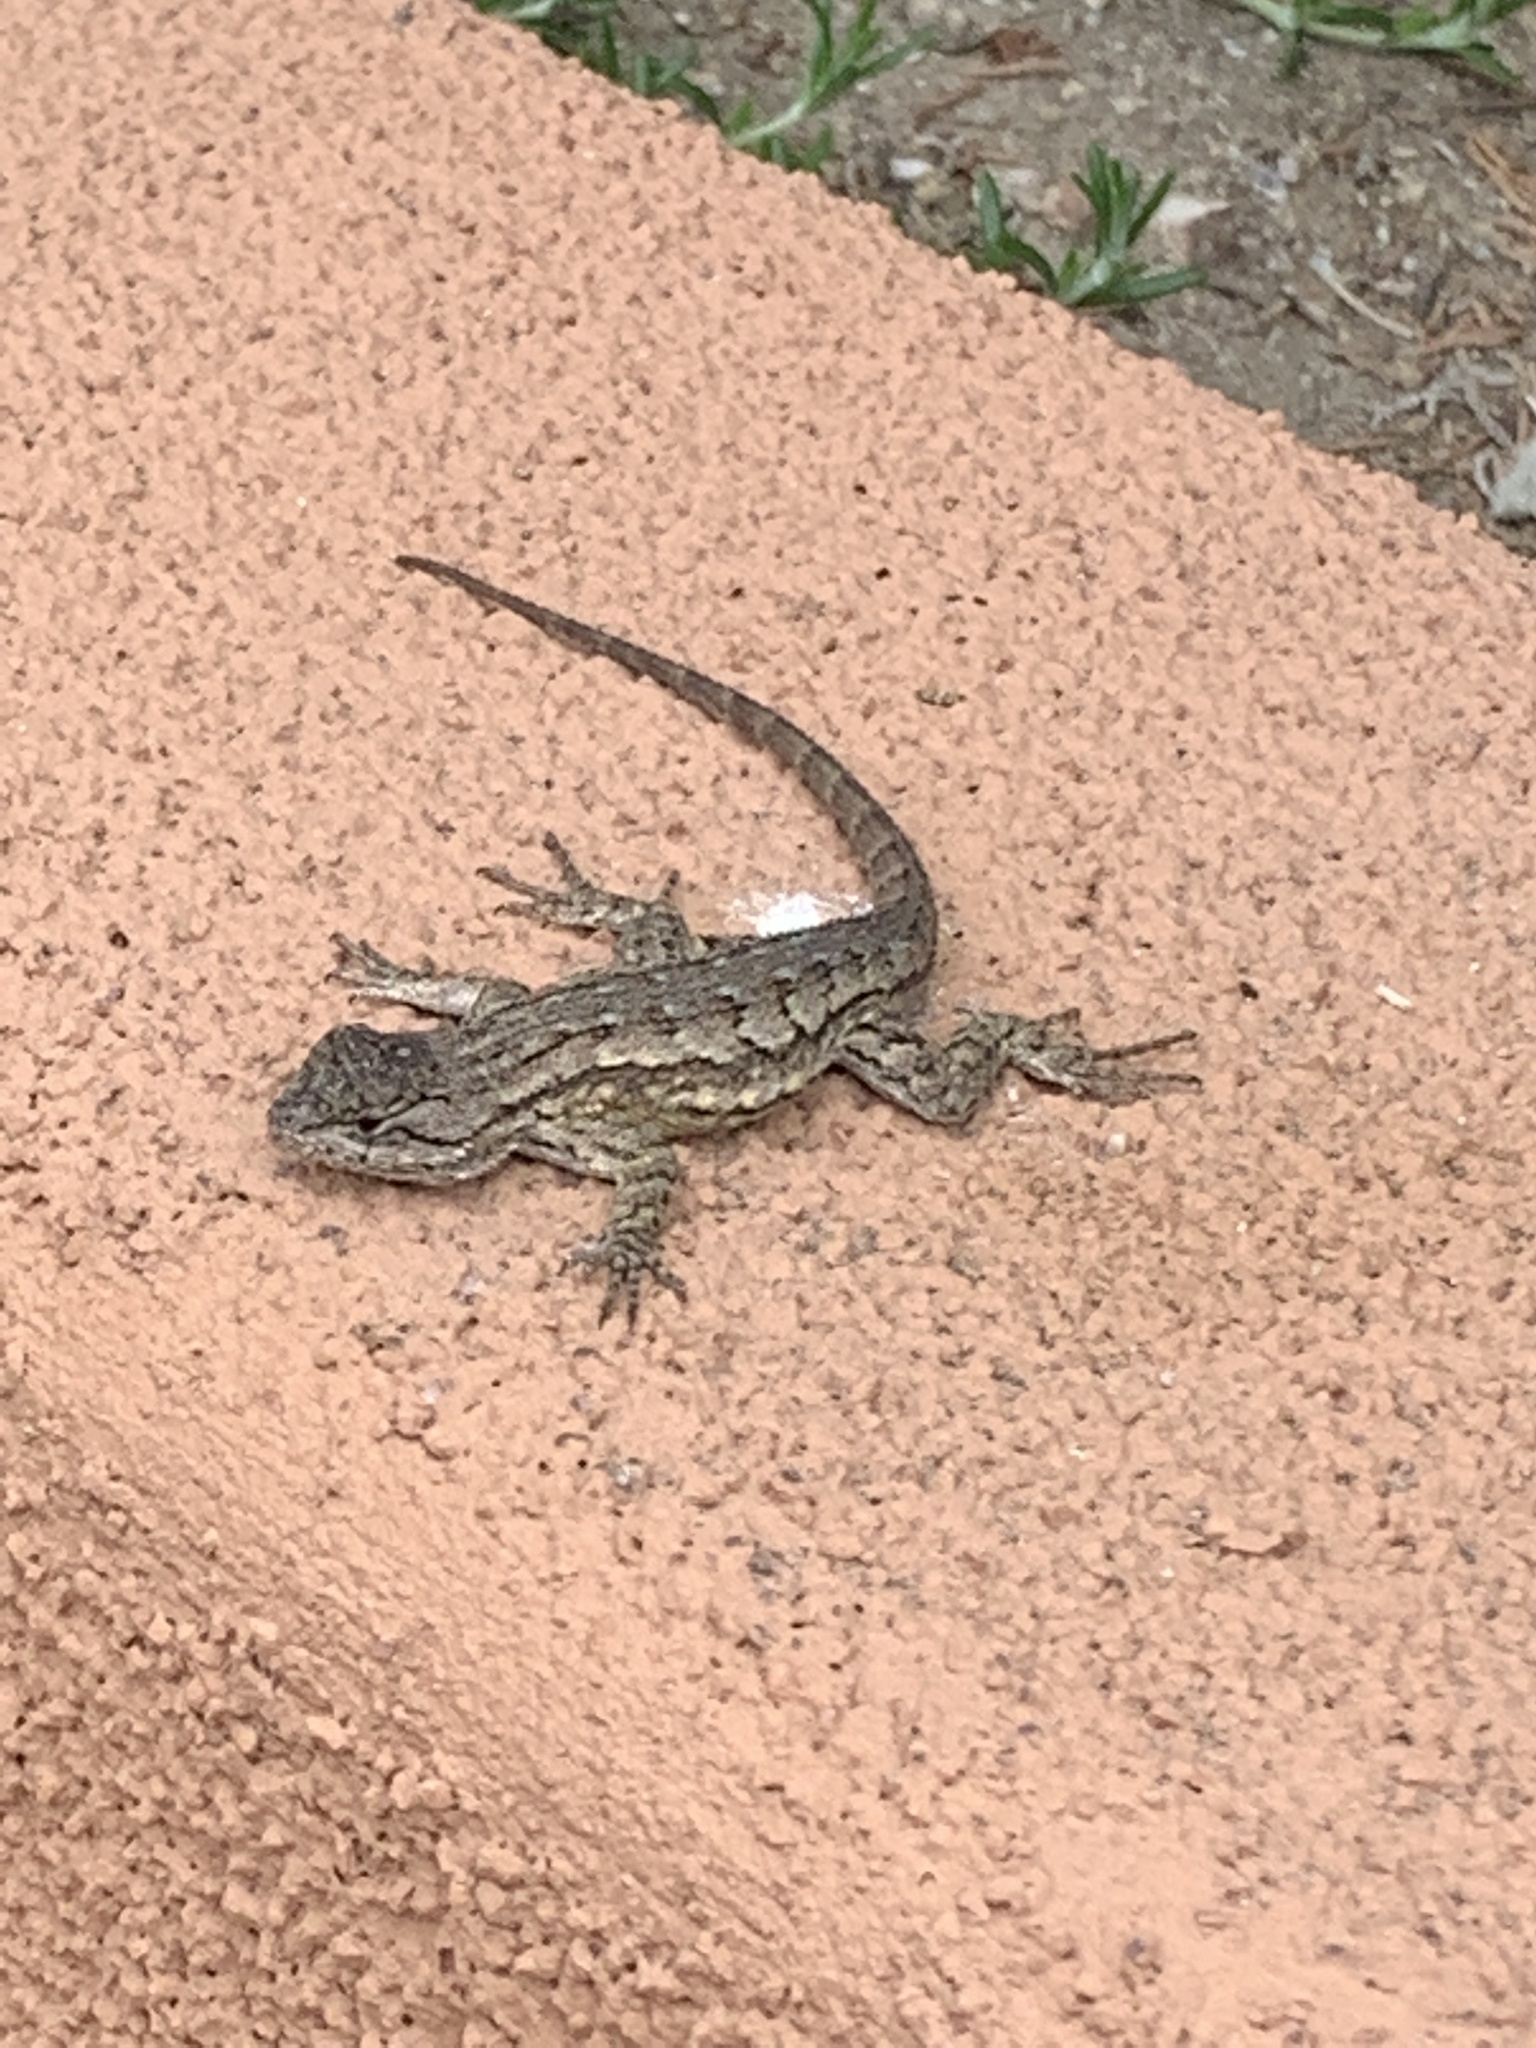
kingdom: Animalia
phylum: Chordata
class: Squamata
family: Phrynosomatidae
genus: Sceloporus
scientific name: Sceloporus occidentalis
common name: Western fence lizard
